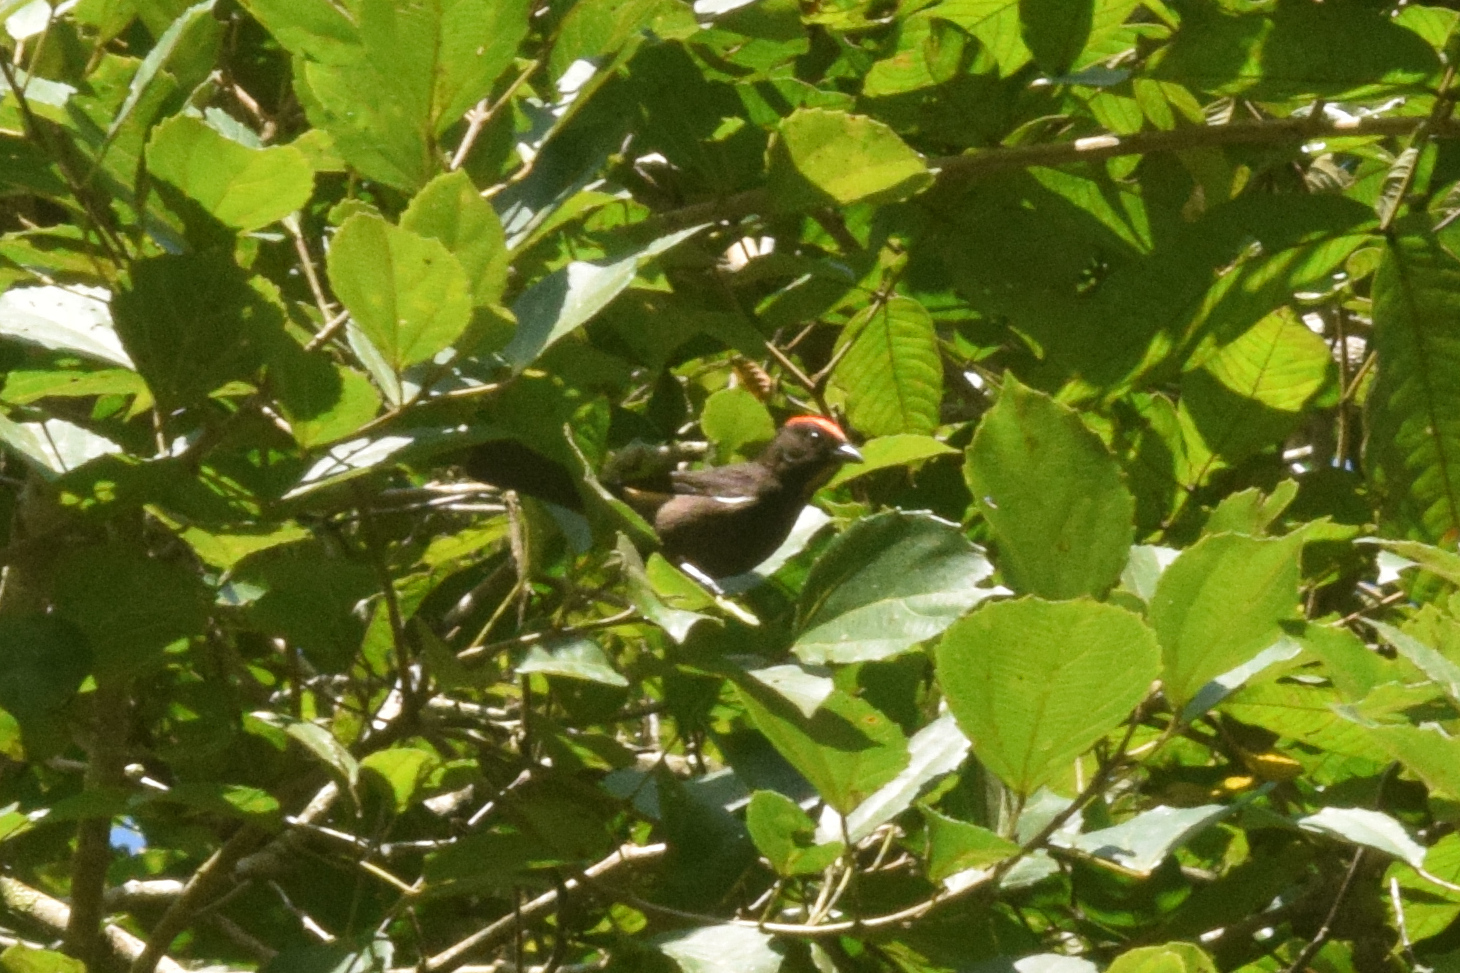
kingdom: Animalia
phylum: Chordata
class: Aves
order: Passeriformes
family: Thraupidae
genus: Loriotus
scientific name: Loriotus cristatus
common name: Flame-crested tanager
